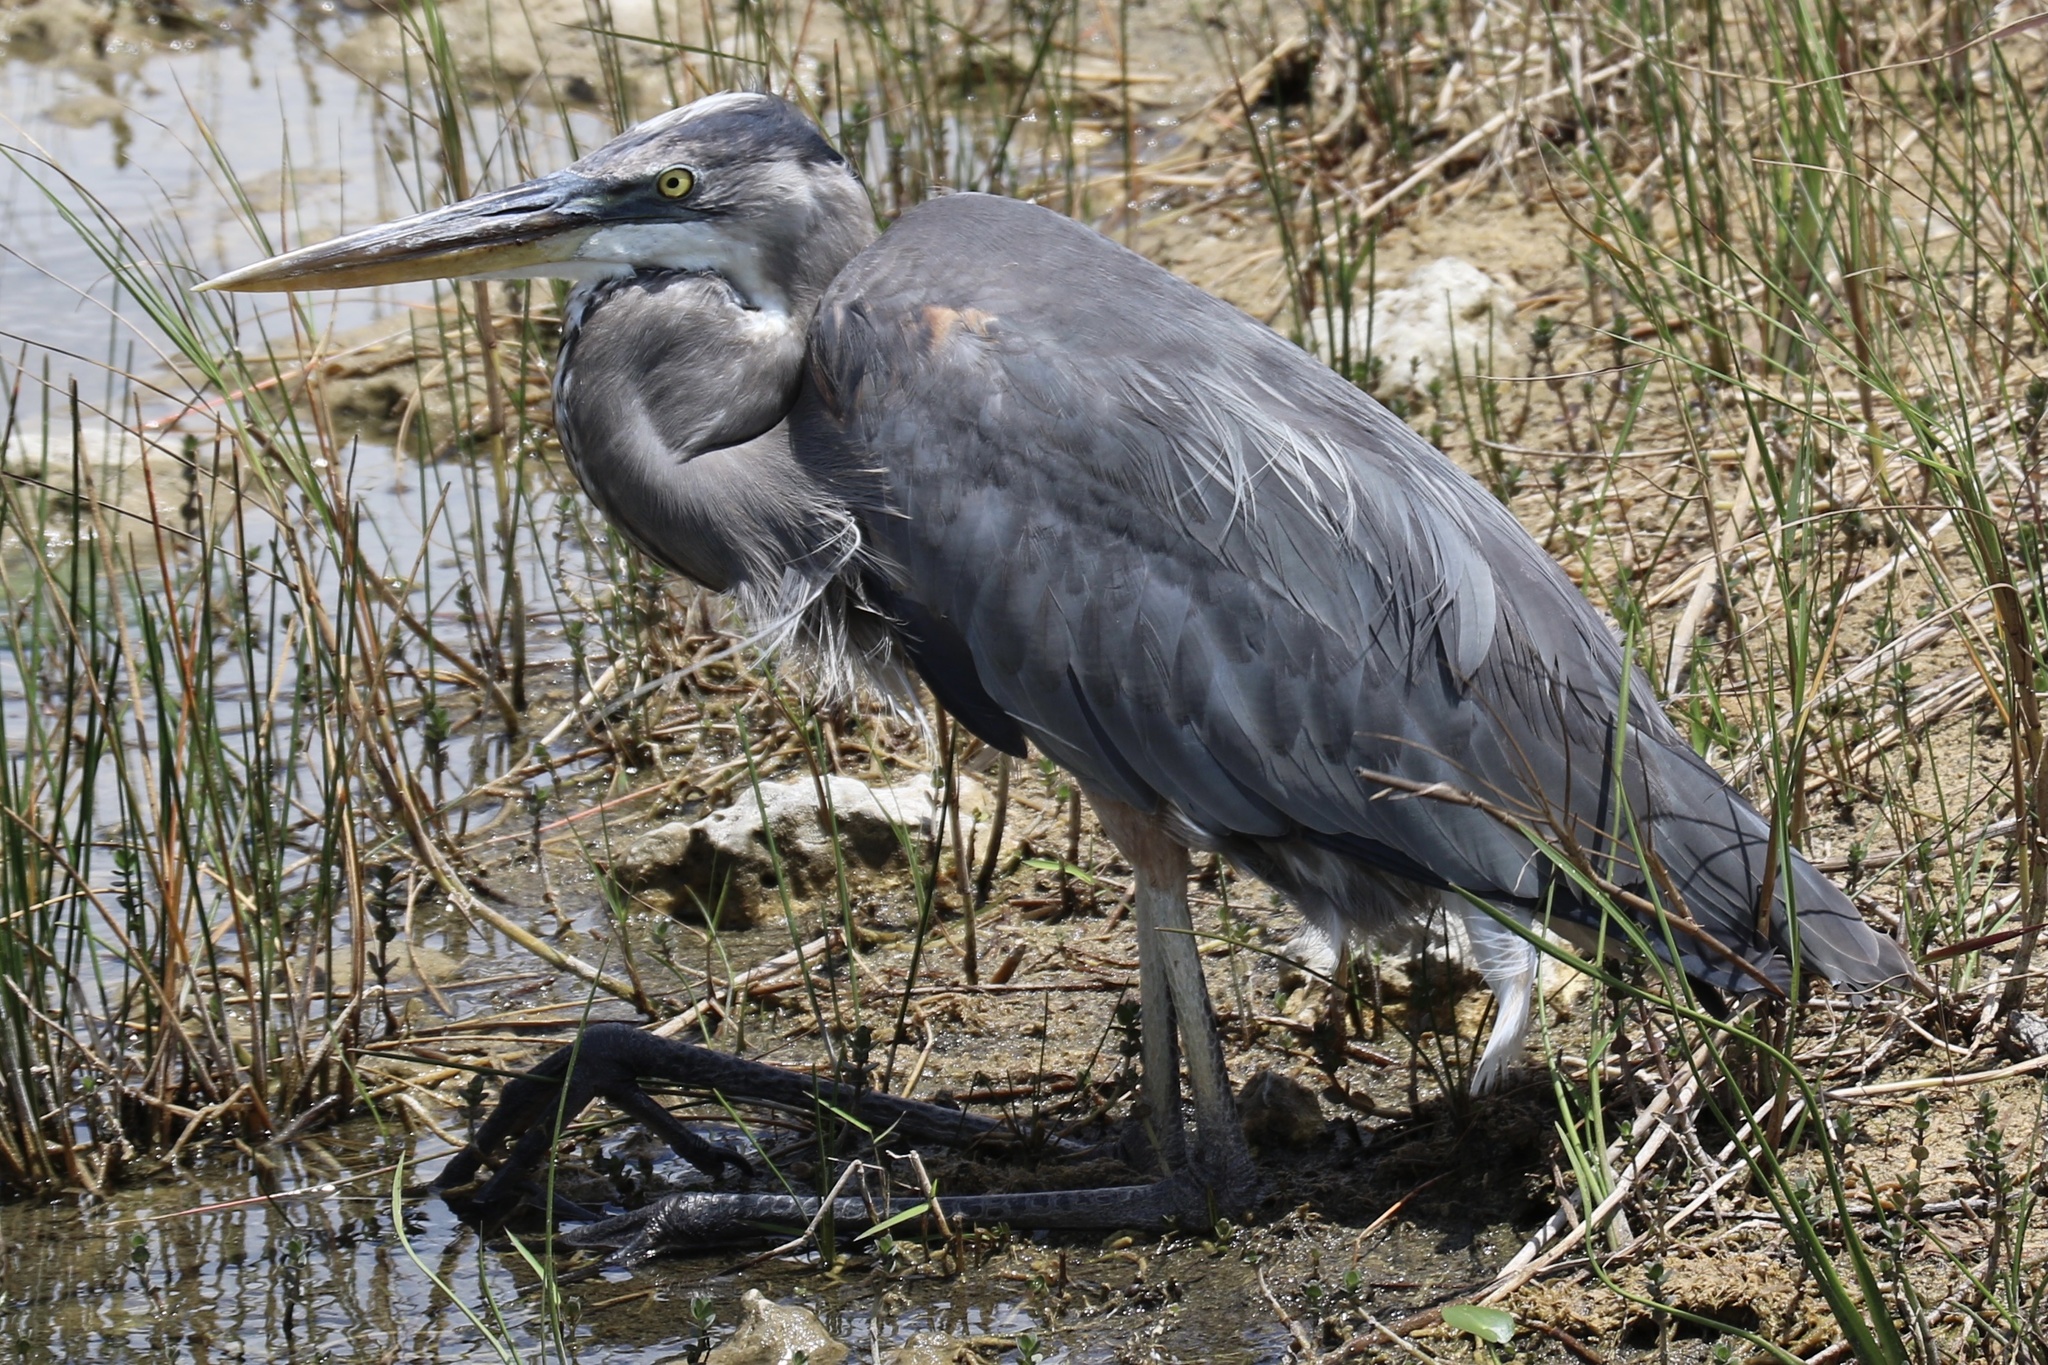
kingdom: Animalia
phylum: Chordata
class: Aves
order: Pelecaniformes
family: Ardeidae
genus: Ardea
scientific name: Ardea herodias
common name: Great blue heron
